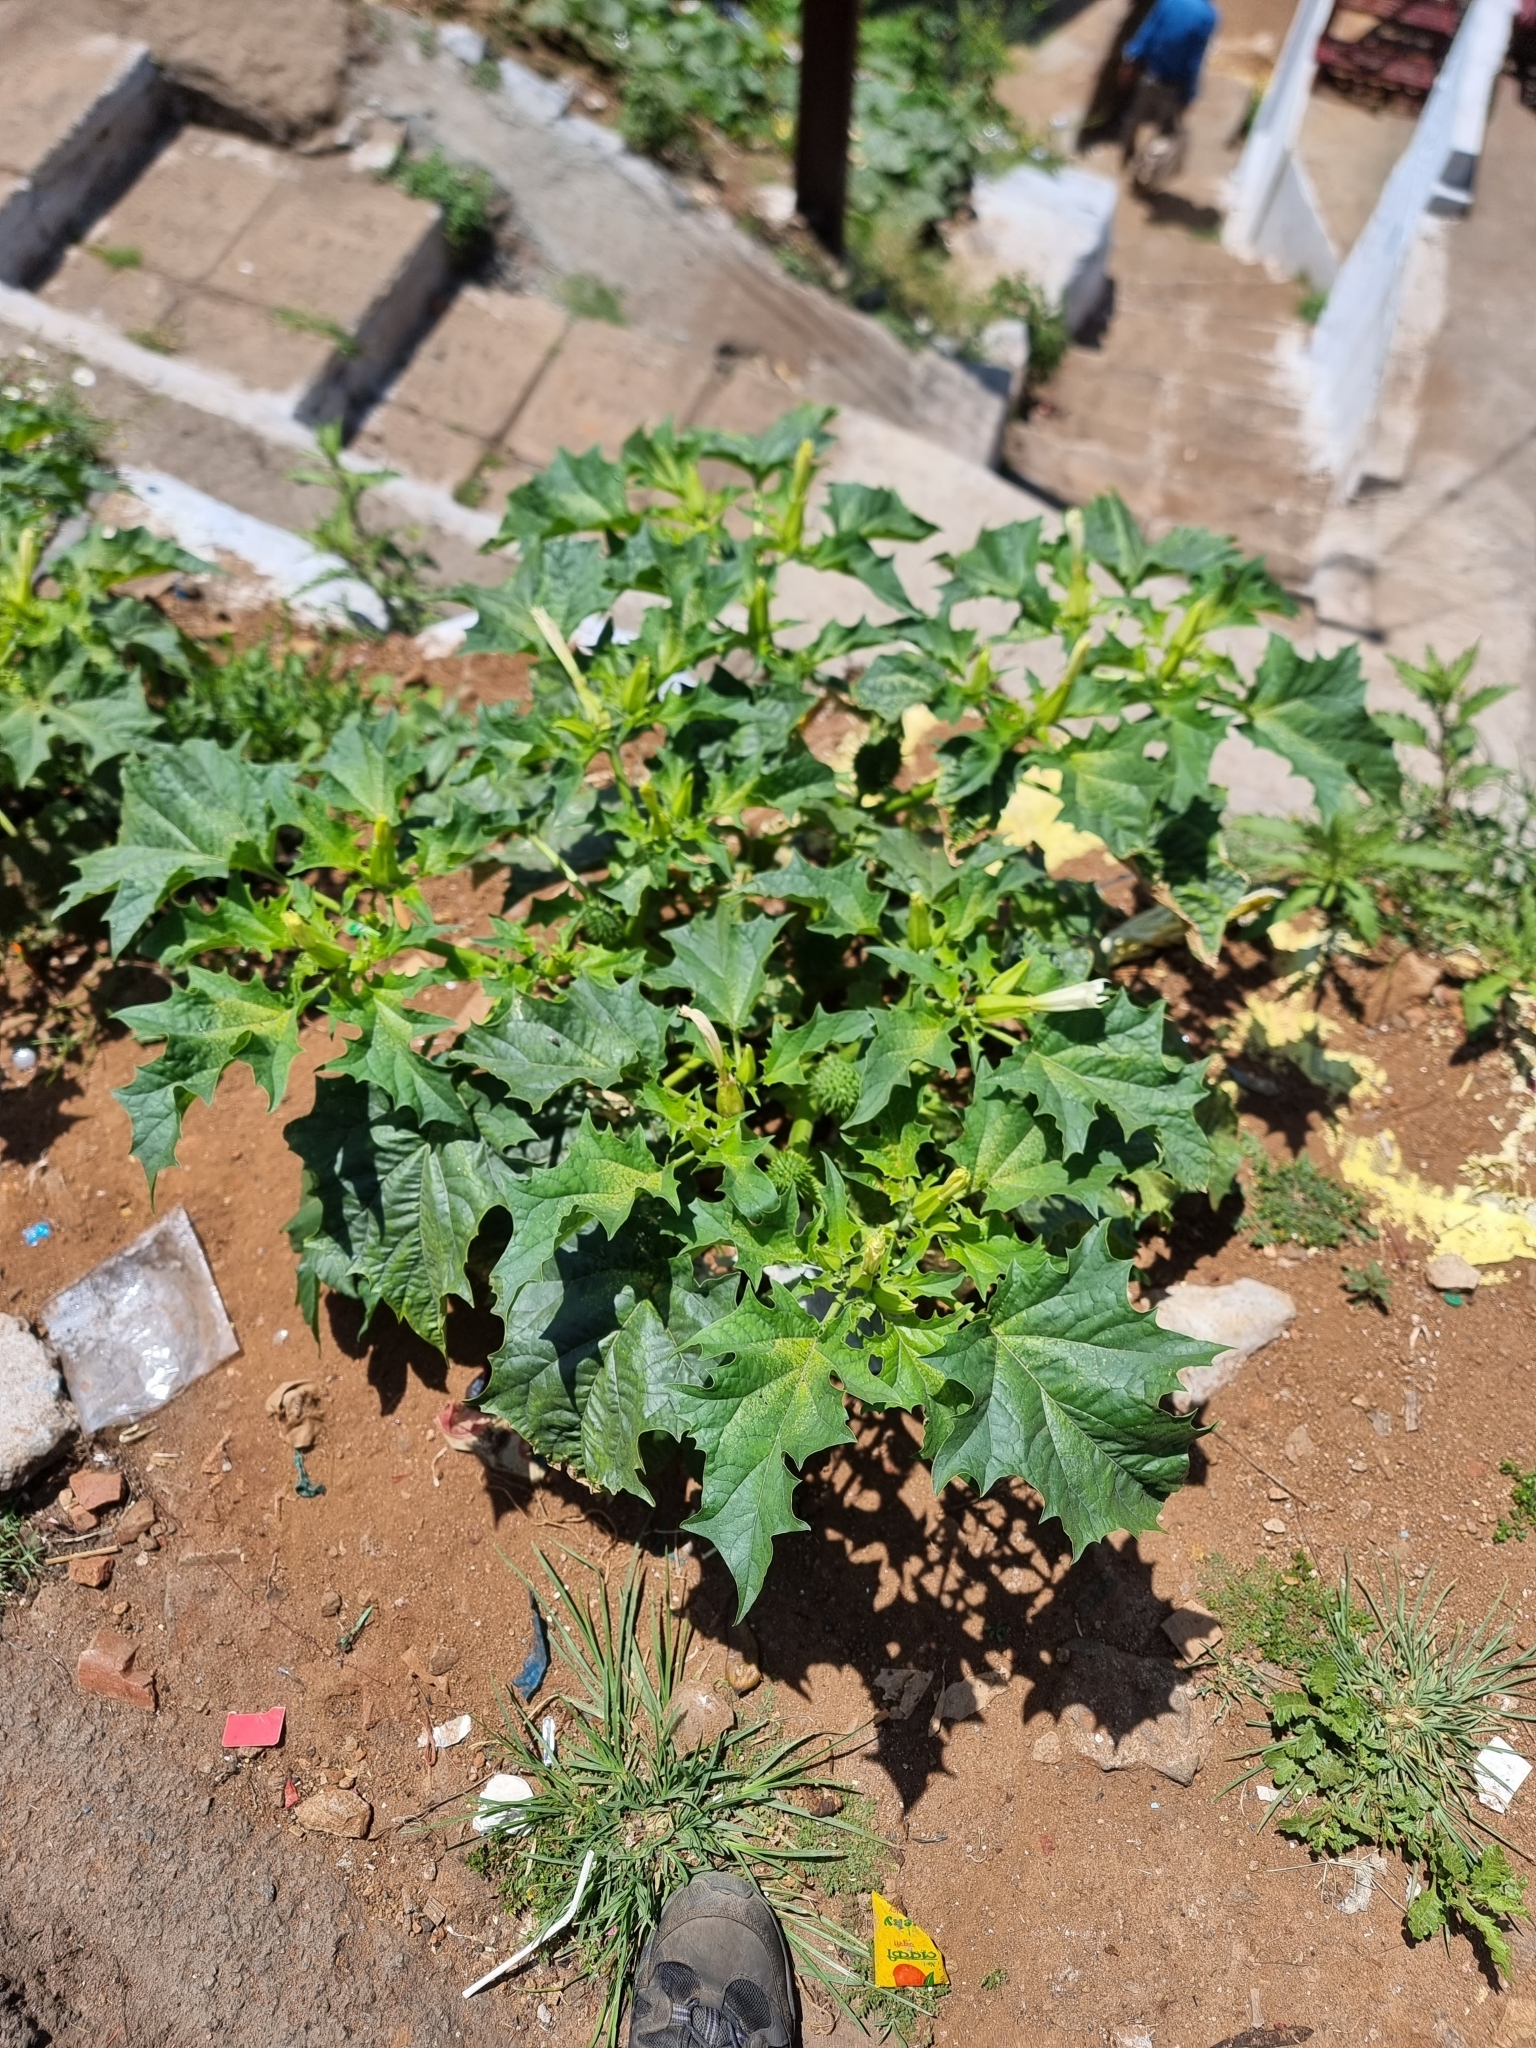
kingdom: Plantae
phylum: Tracheophyta
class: Magnoliopsida
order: Solanales
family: Solanaceae
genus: Datura
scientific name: Datura stramonium
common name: Thorn-apple
